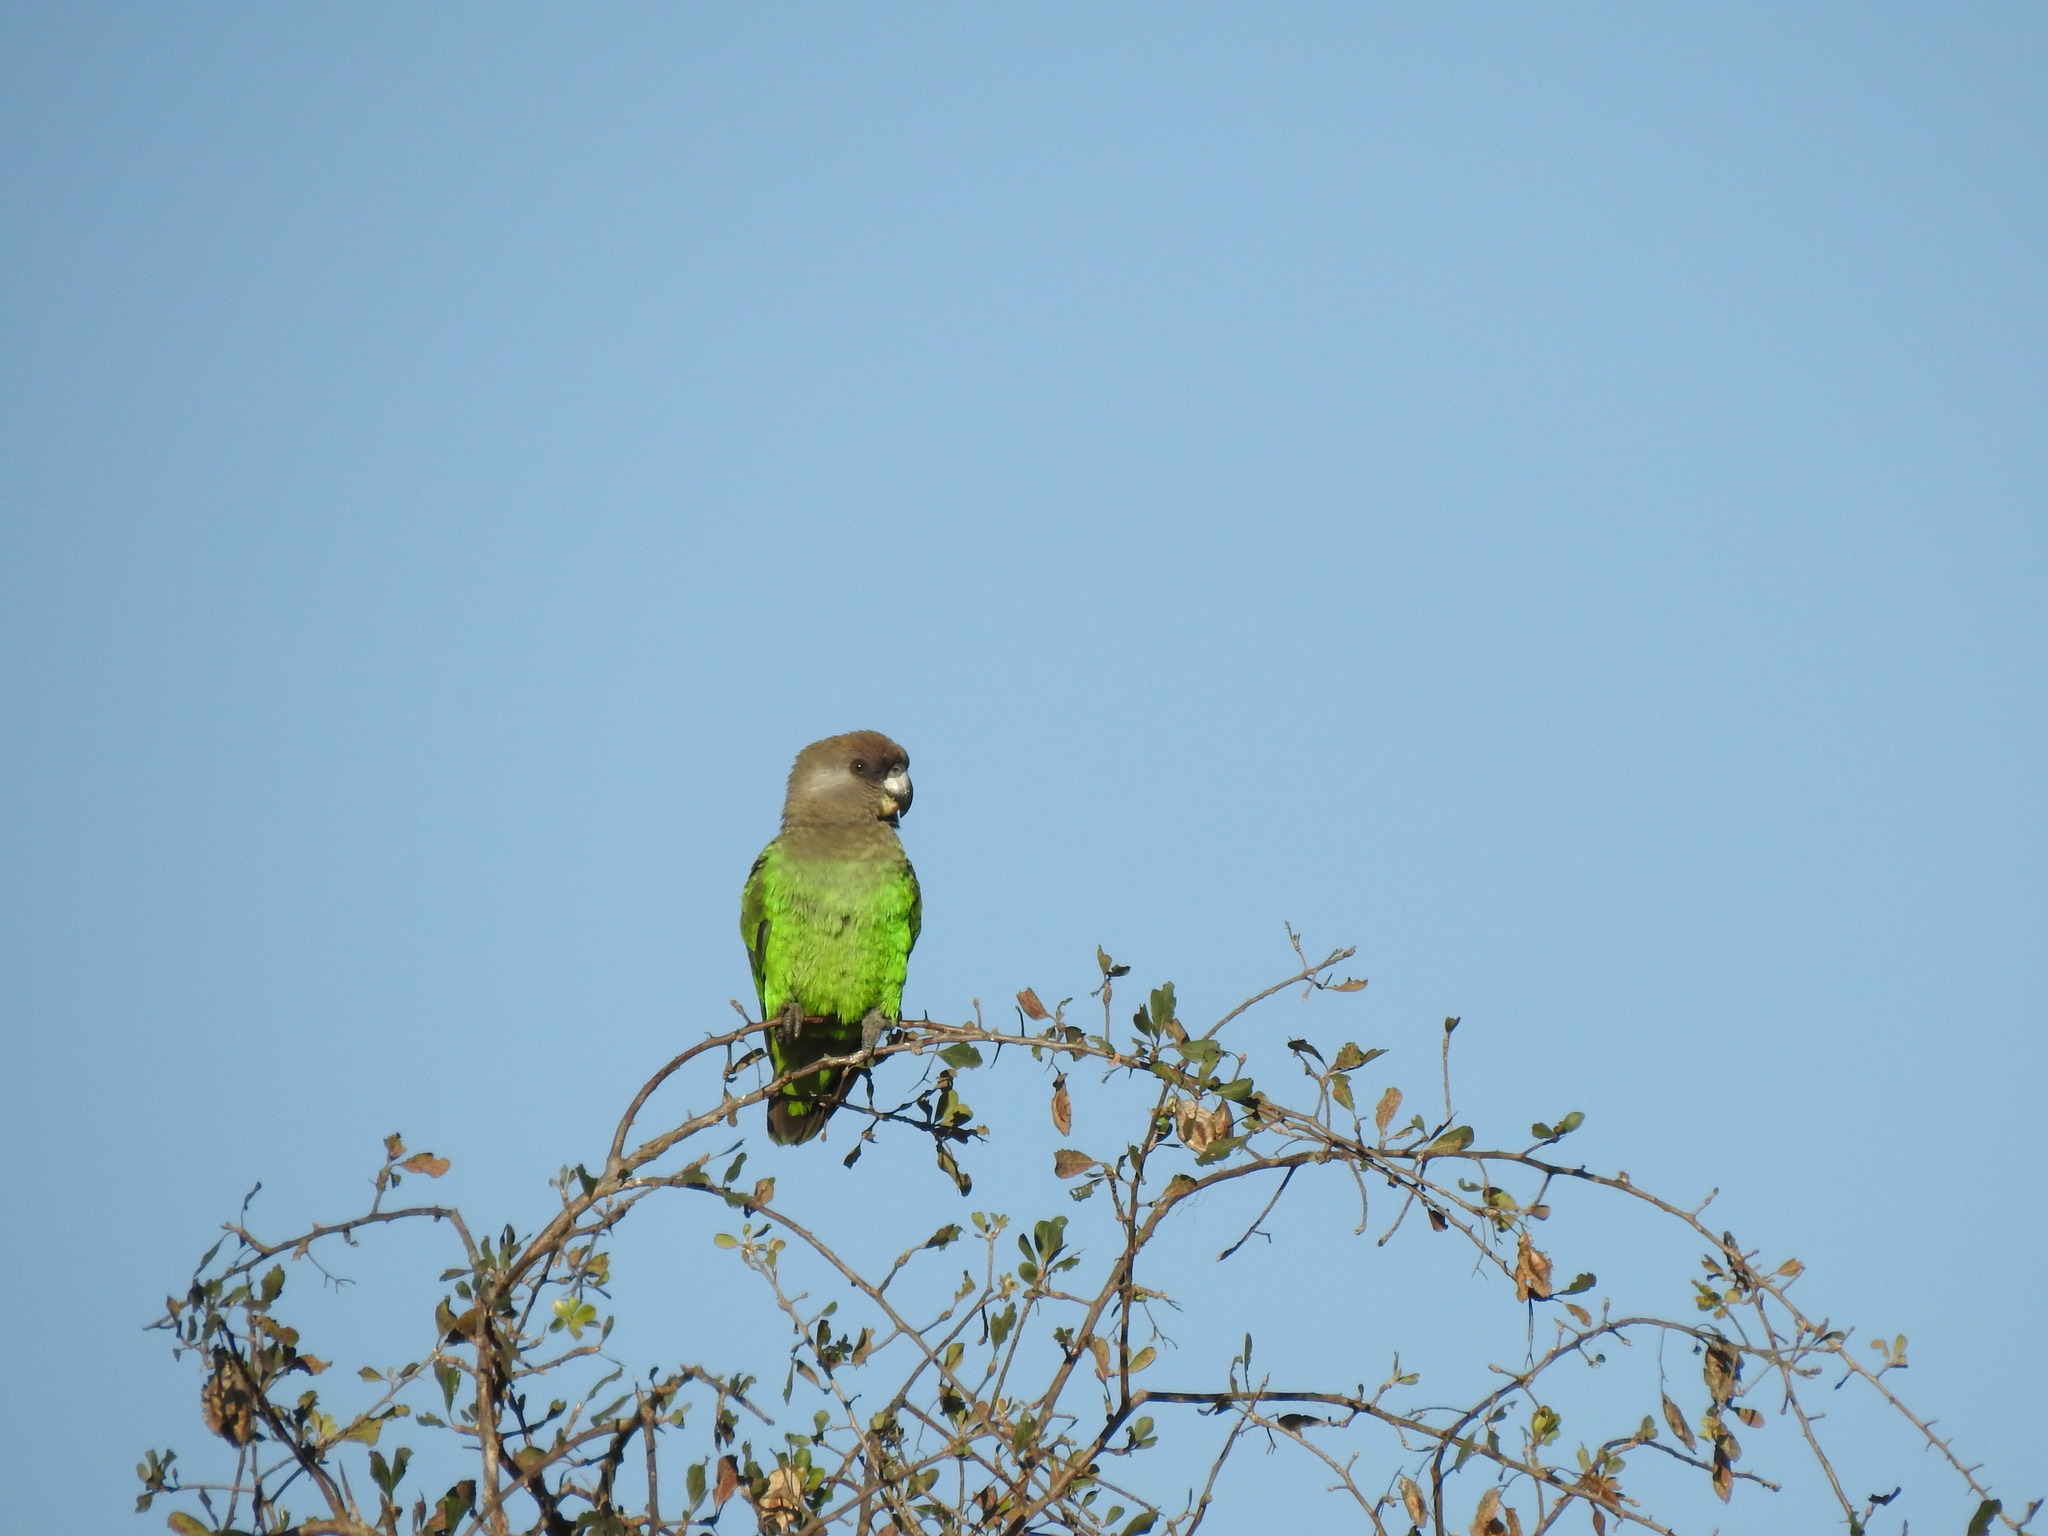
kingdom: Animalia
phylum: Chordata
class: Aves
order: Psittaciformes
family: Psittacidae
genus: Poicephalus
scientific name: Poicephalus cryptoxanthus
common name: Brown-headed parrot
